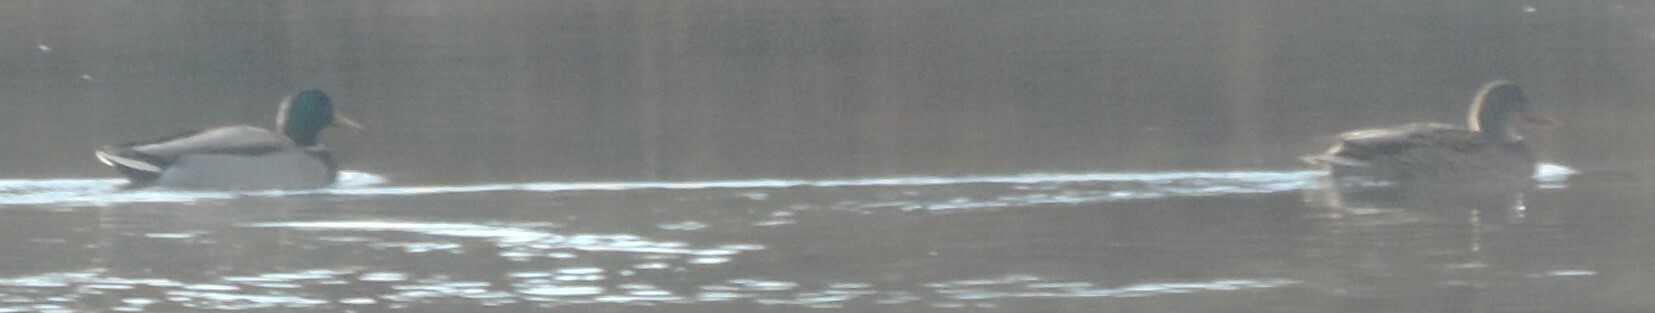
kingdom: Animalia
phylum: Chordata
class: Aves
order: Anseriformes
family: Anatidae
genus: Anas
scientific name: Anas platyrhynchos
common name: Mallard
